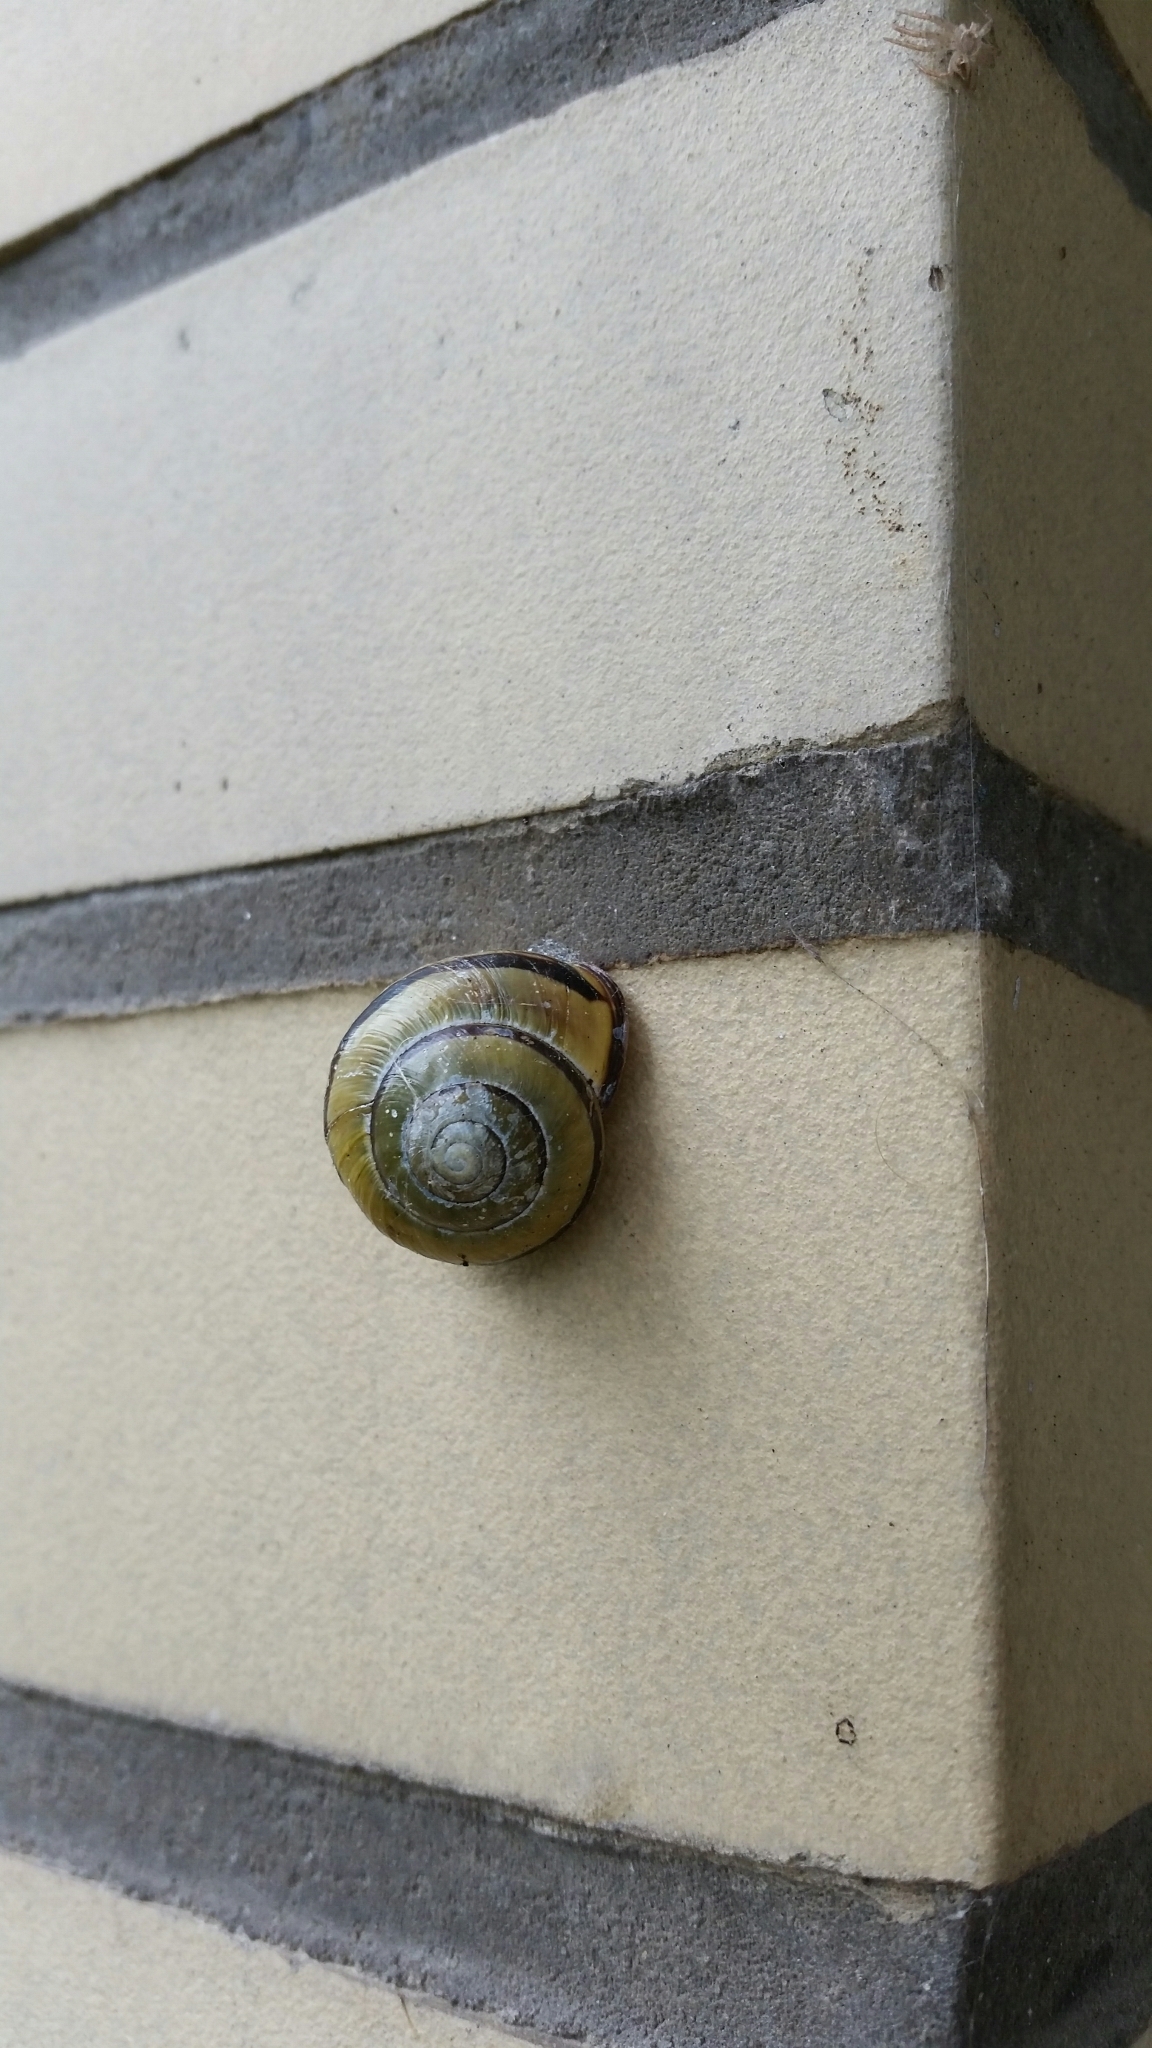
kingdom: Animalia
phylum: Mollusca
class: Gastropoda
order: Stylommatophora
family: Helicidae
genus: Cepaea
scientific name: Cepaea nemoralis
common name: Grovesnail
